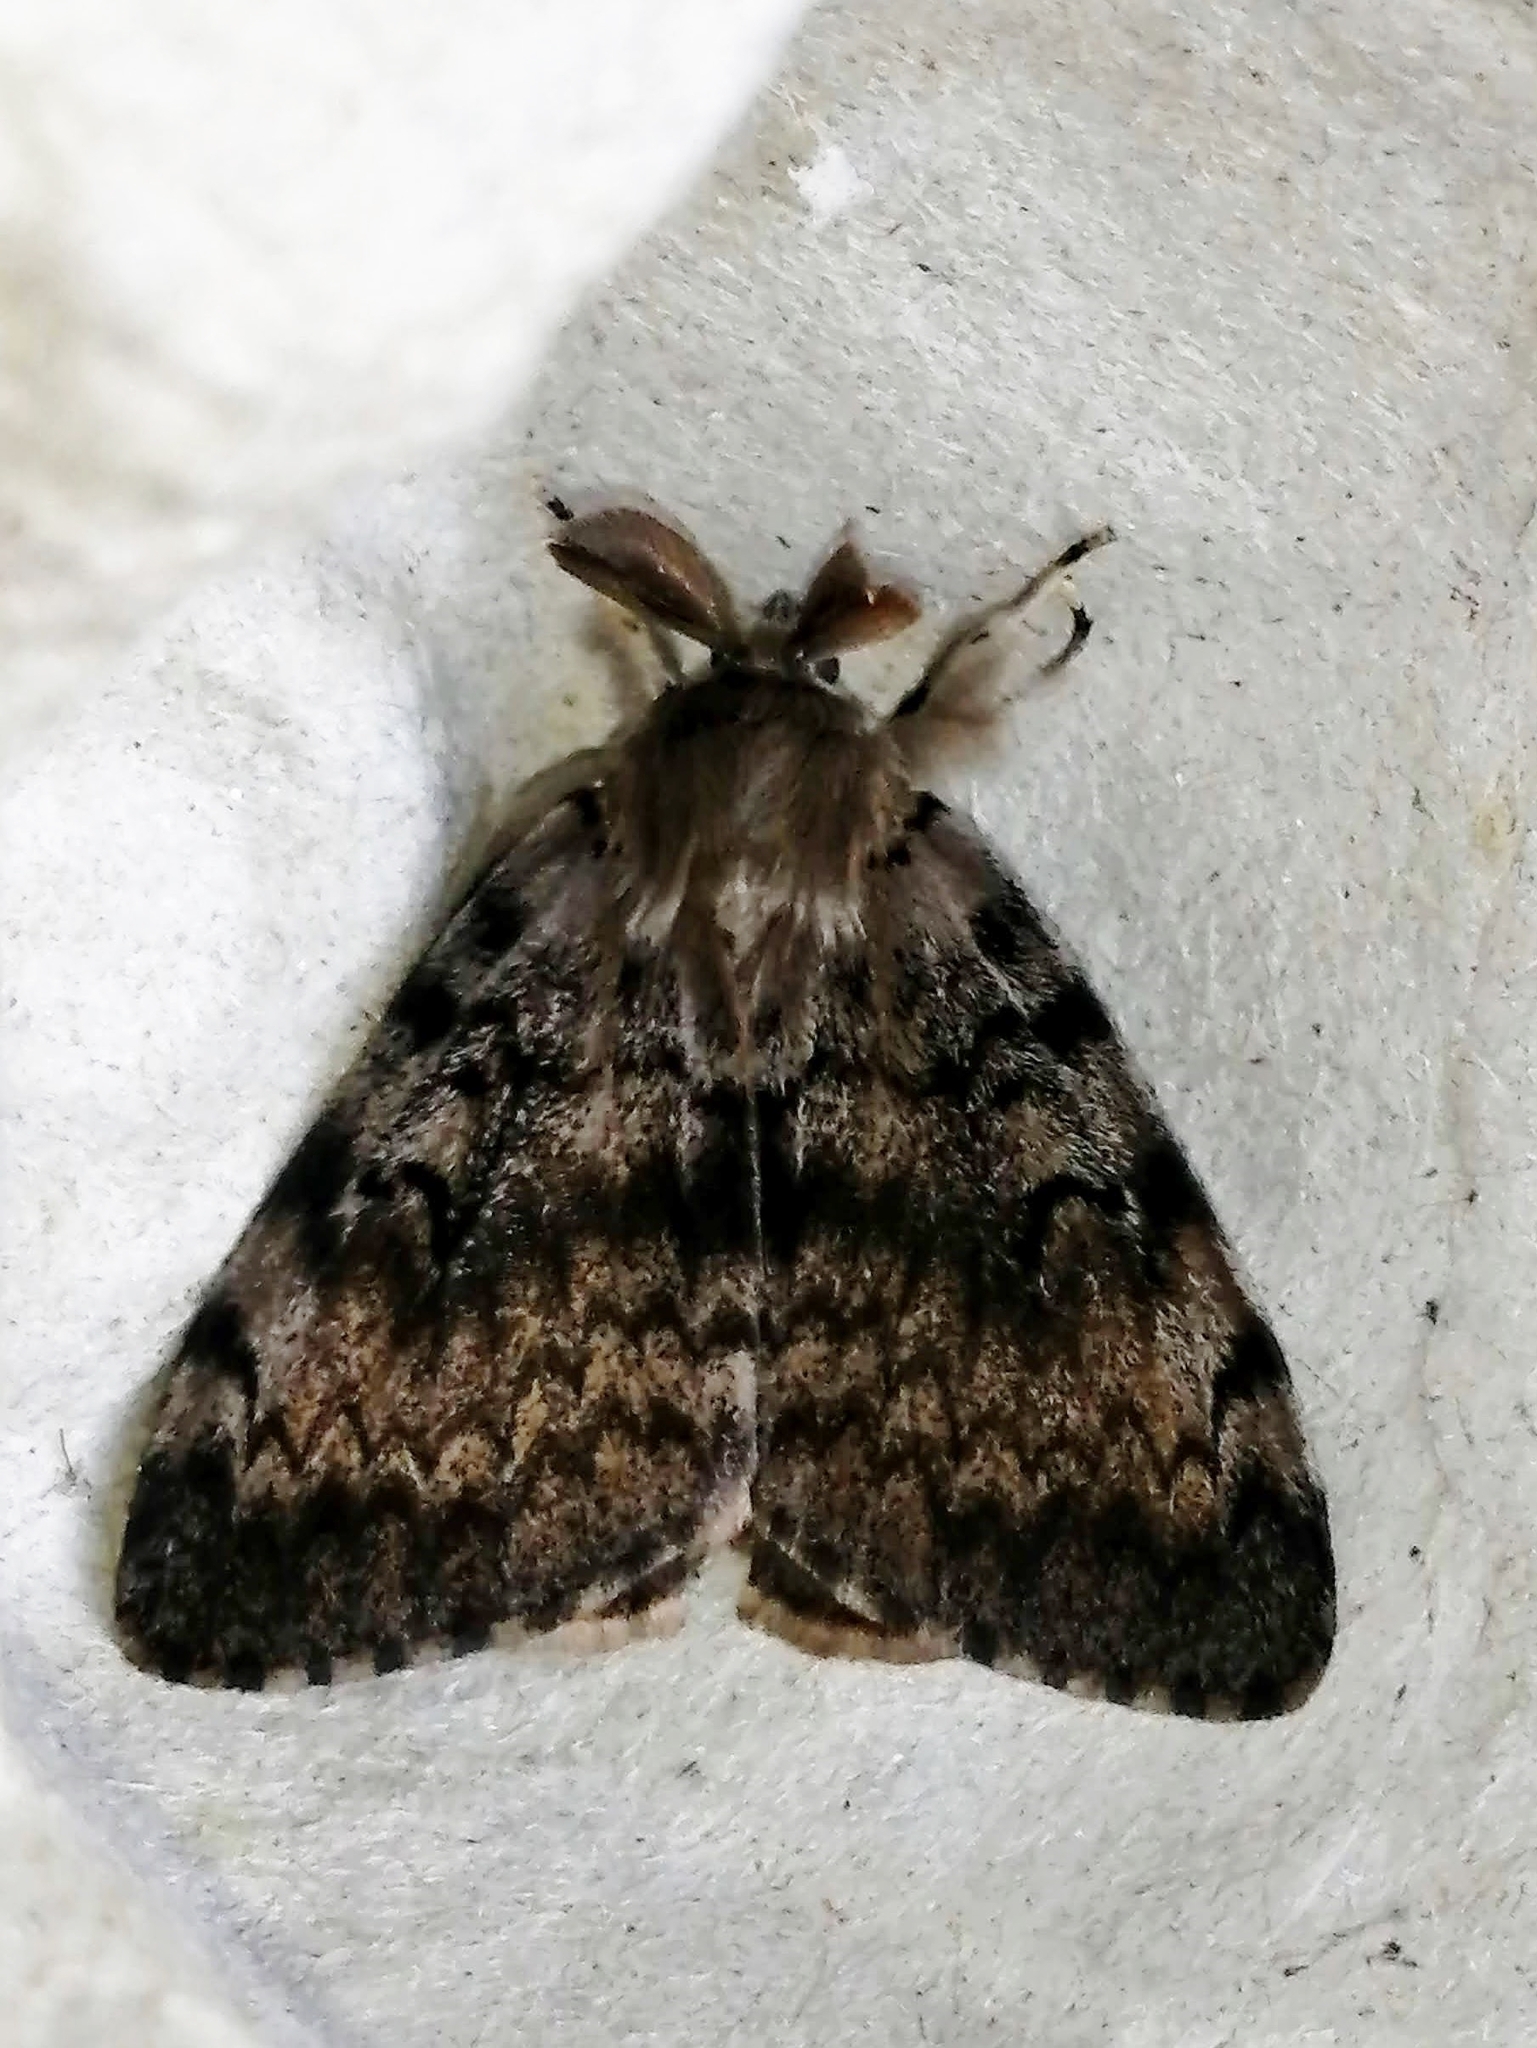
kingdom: Animalia
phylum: Arthropoda
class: Insecta
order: Lepidoptera
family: Erebidae
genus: Lymantria
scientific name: Lymantria dispar
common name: Gypsy moth
